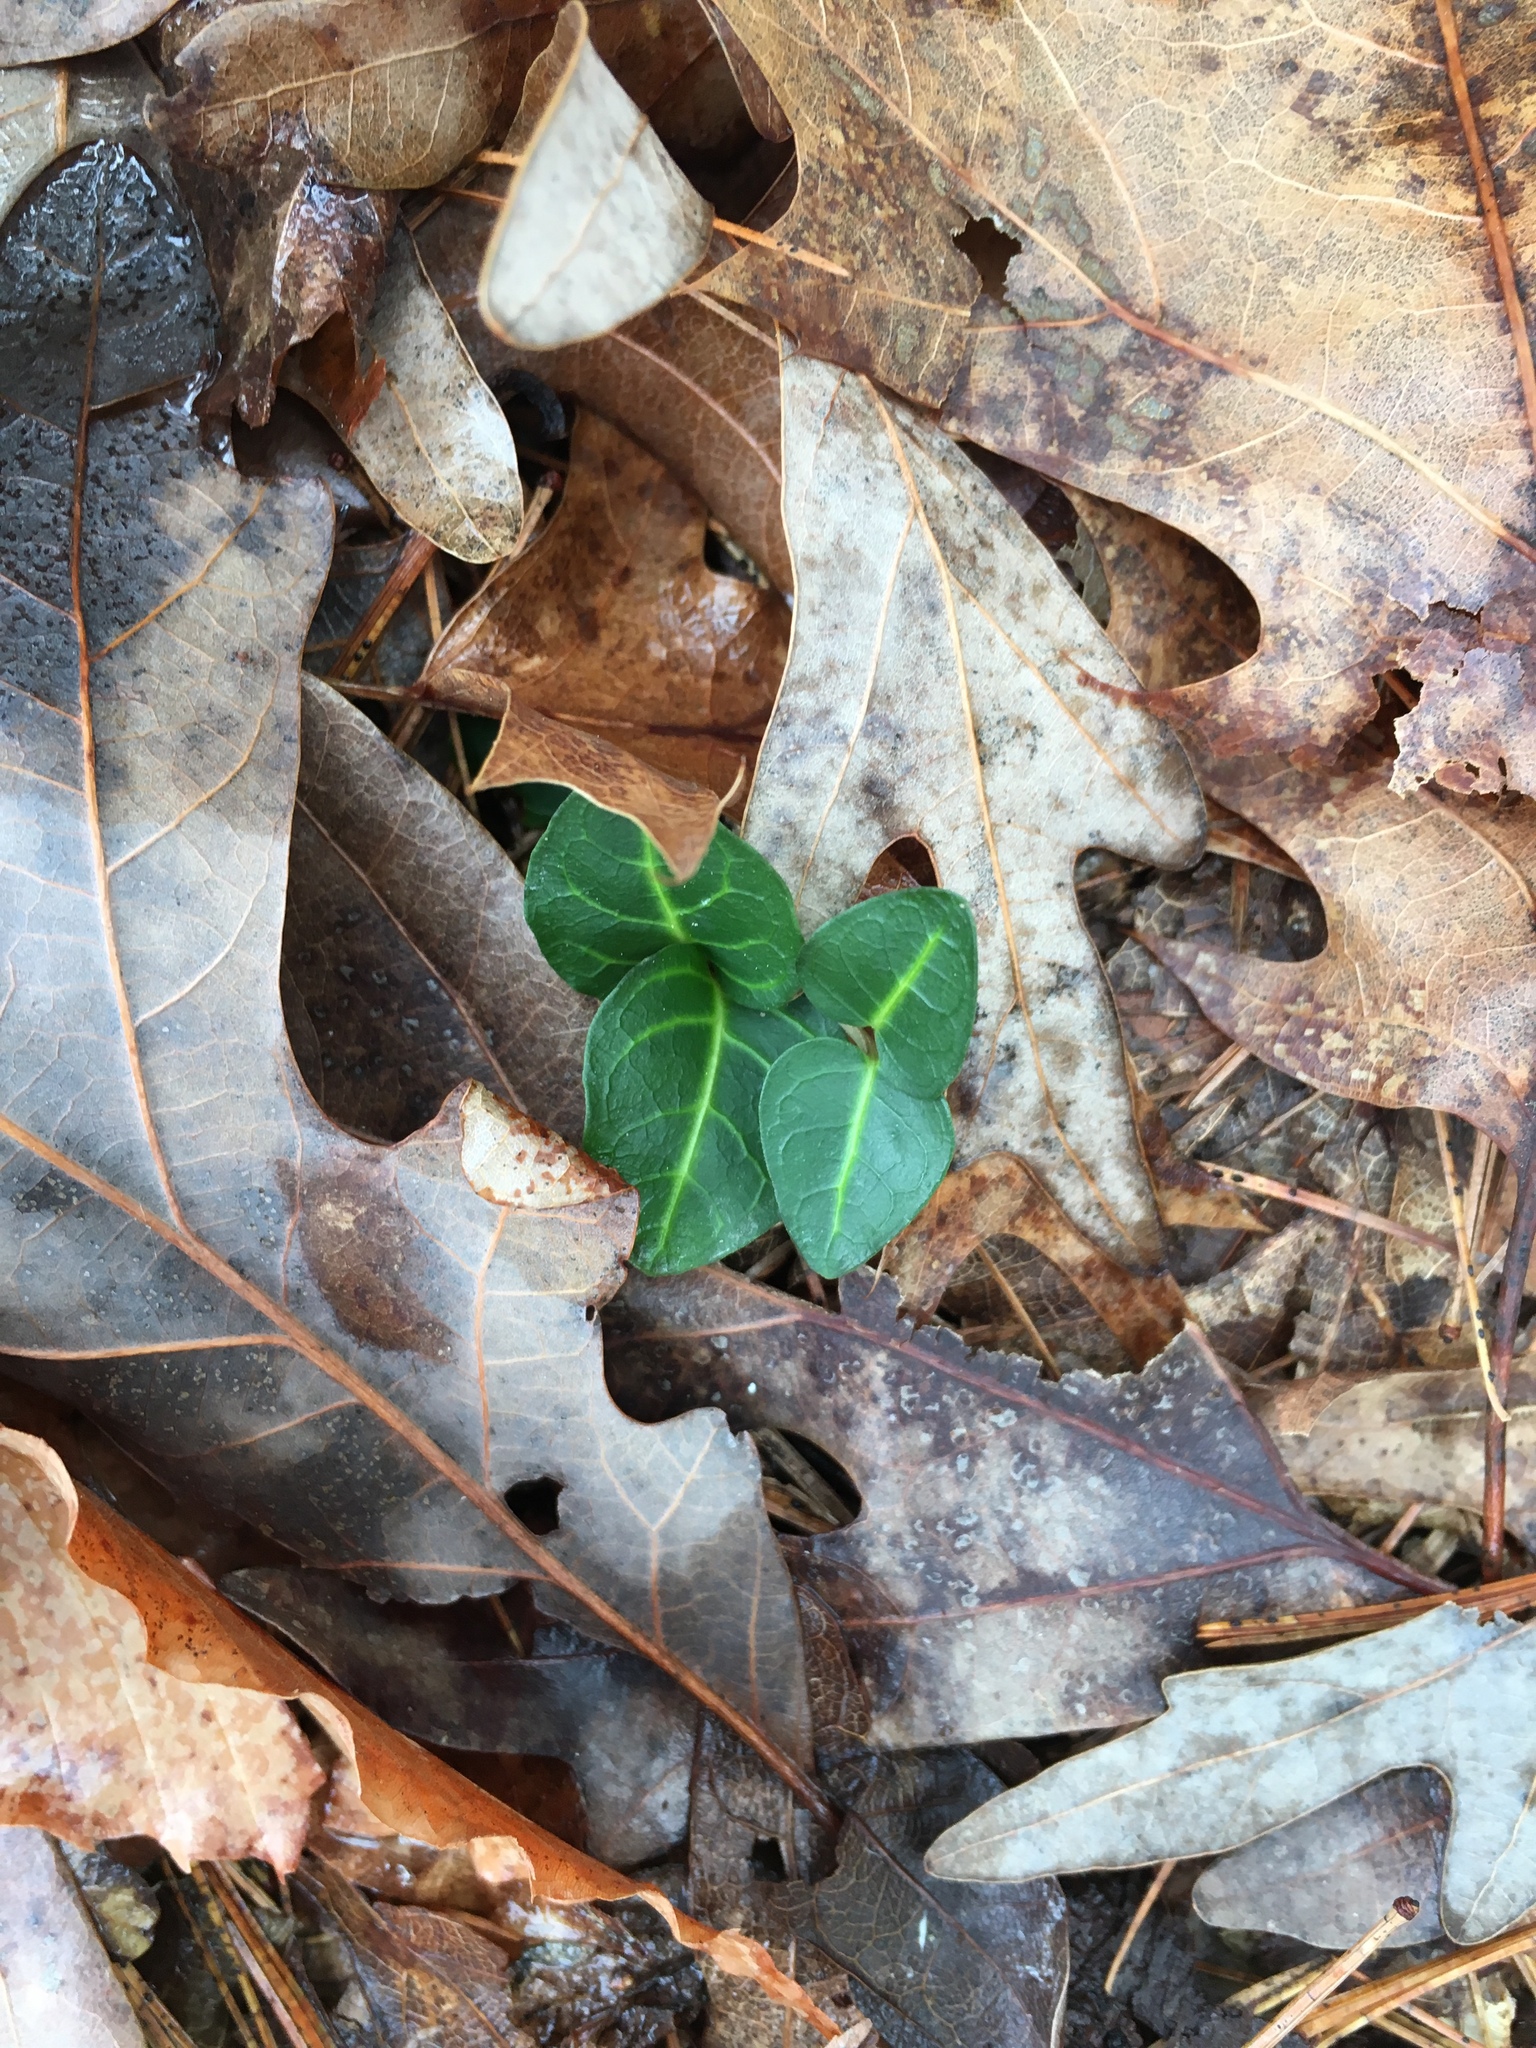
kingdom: Plantae
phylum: Tracheophyta
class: Magnoliopsida
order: Gentianales
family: Rubiaceae
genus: Mitchella
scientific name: Mitchella repens
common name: Partridge-berry
